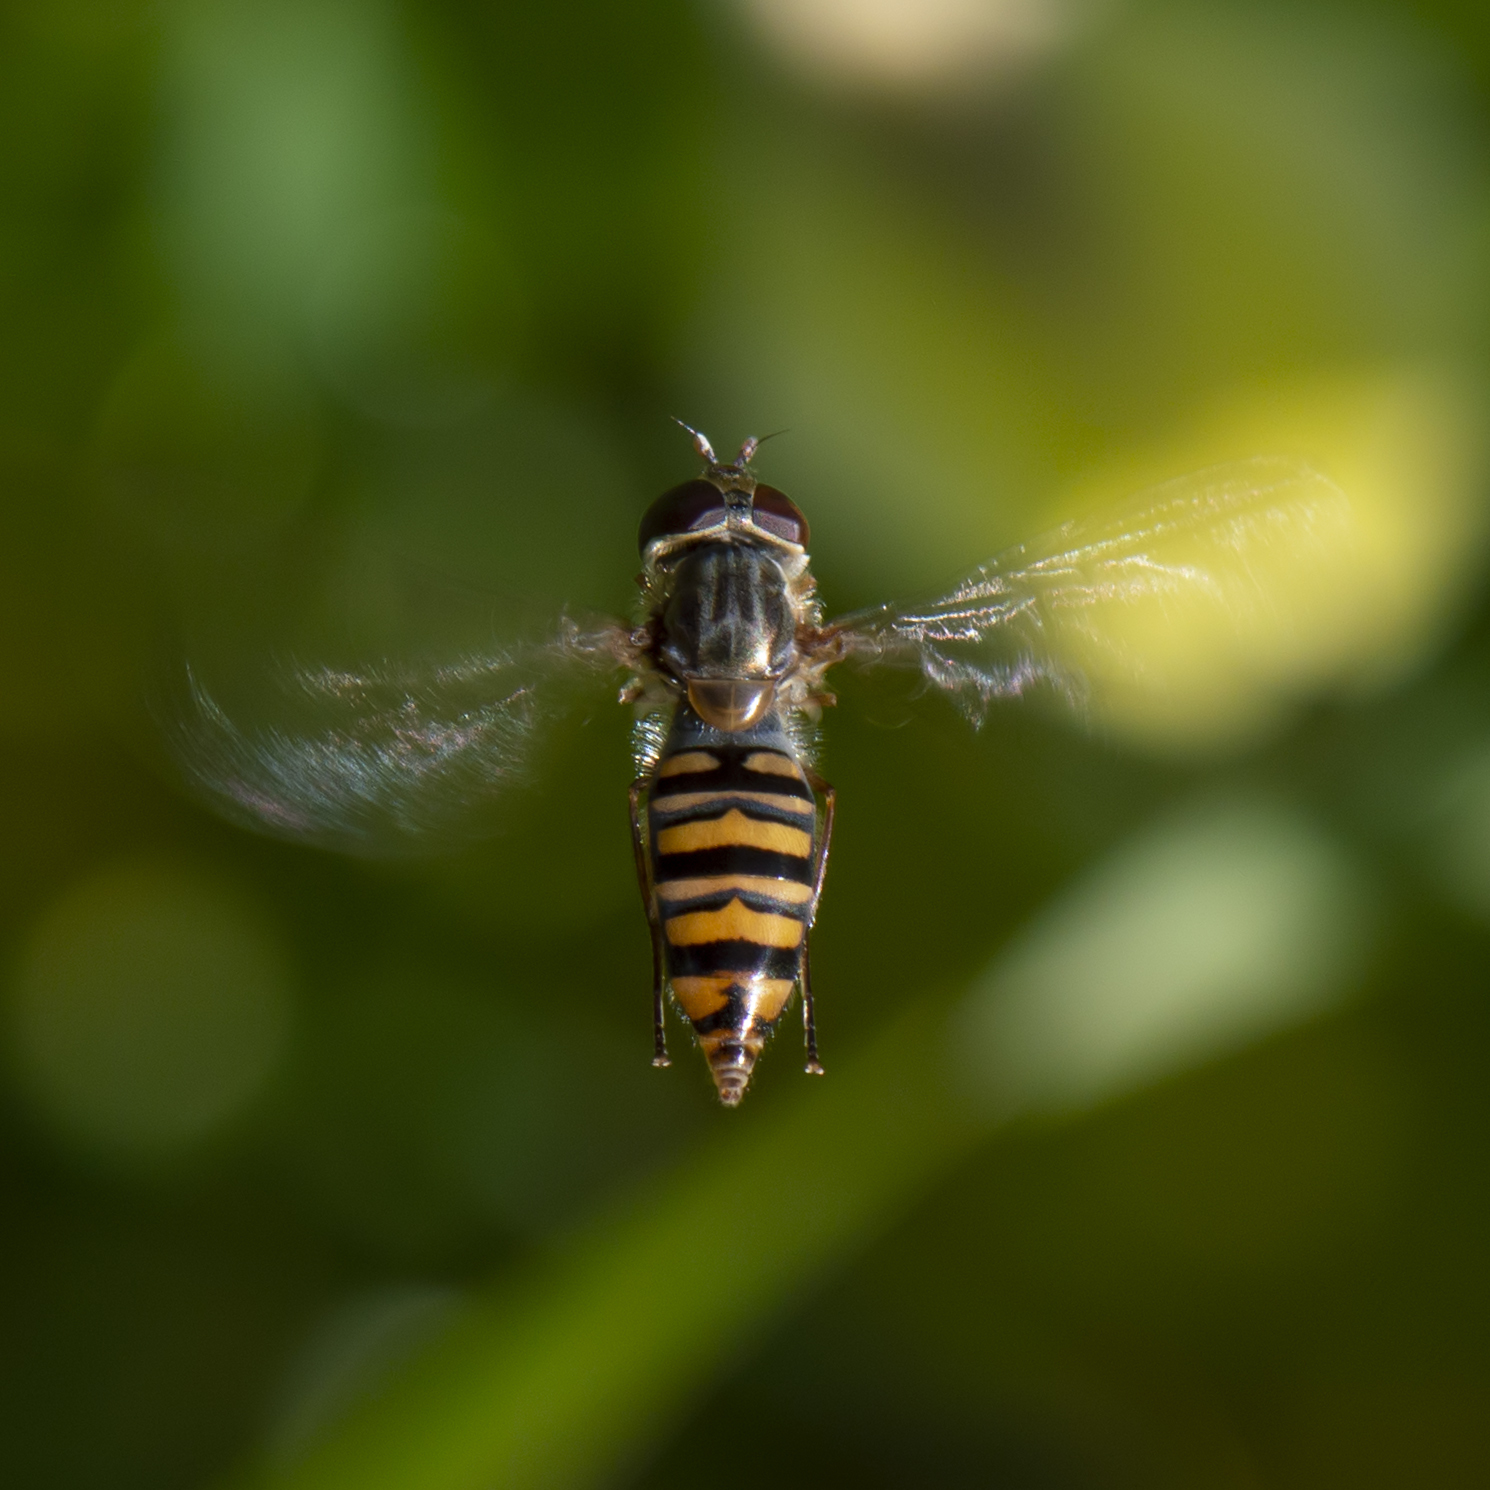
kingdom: Animalia
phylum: Arthropoda
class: Insecta
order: Diptera
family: Syrphidae
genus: Episyrphus
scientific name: Episyrphus balteatus
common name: Marmalade hoverfly
